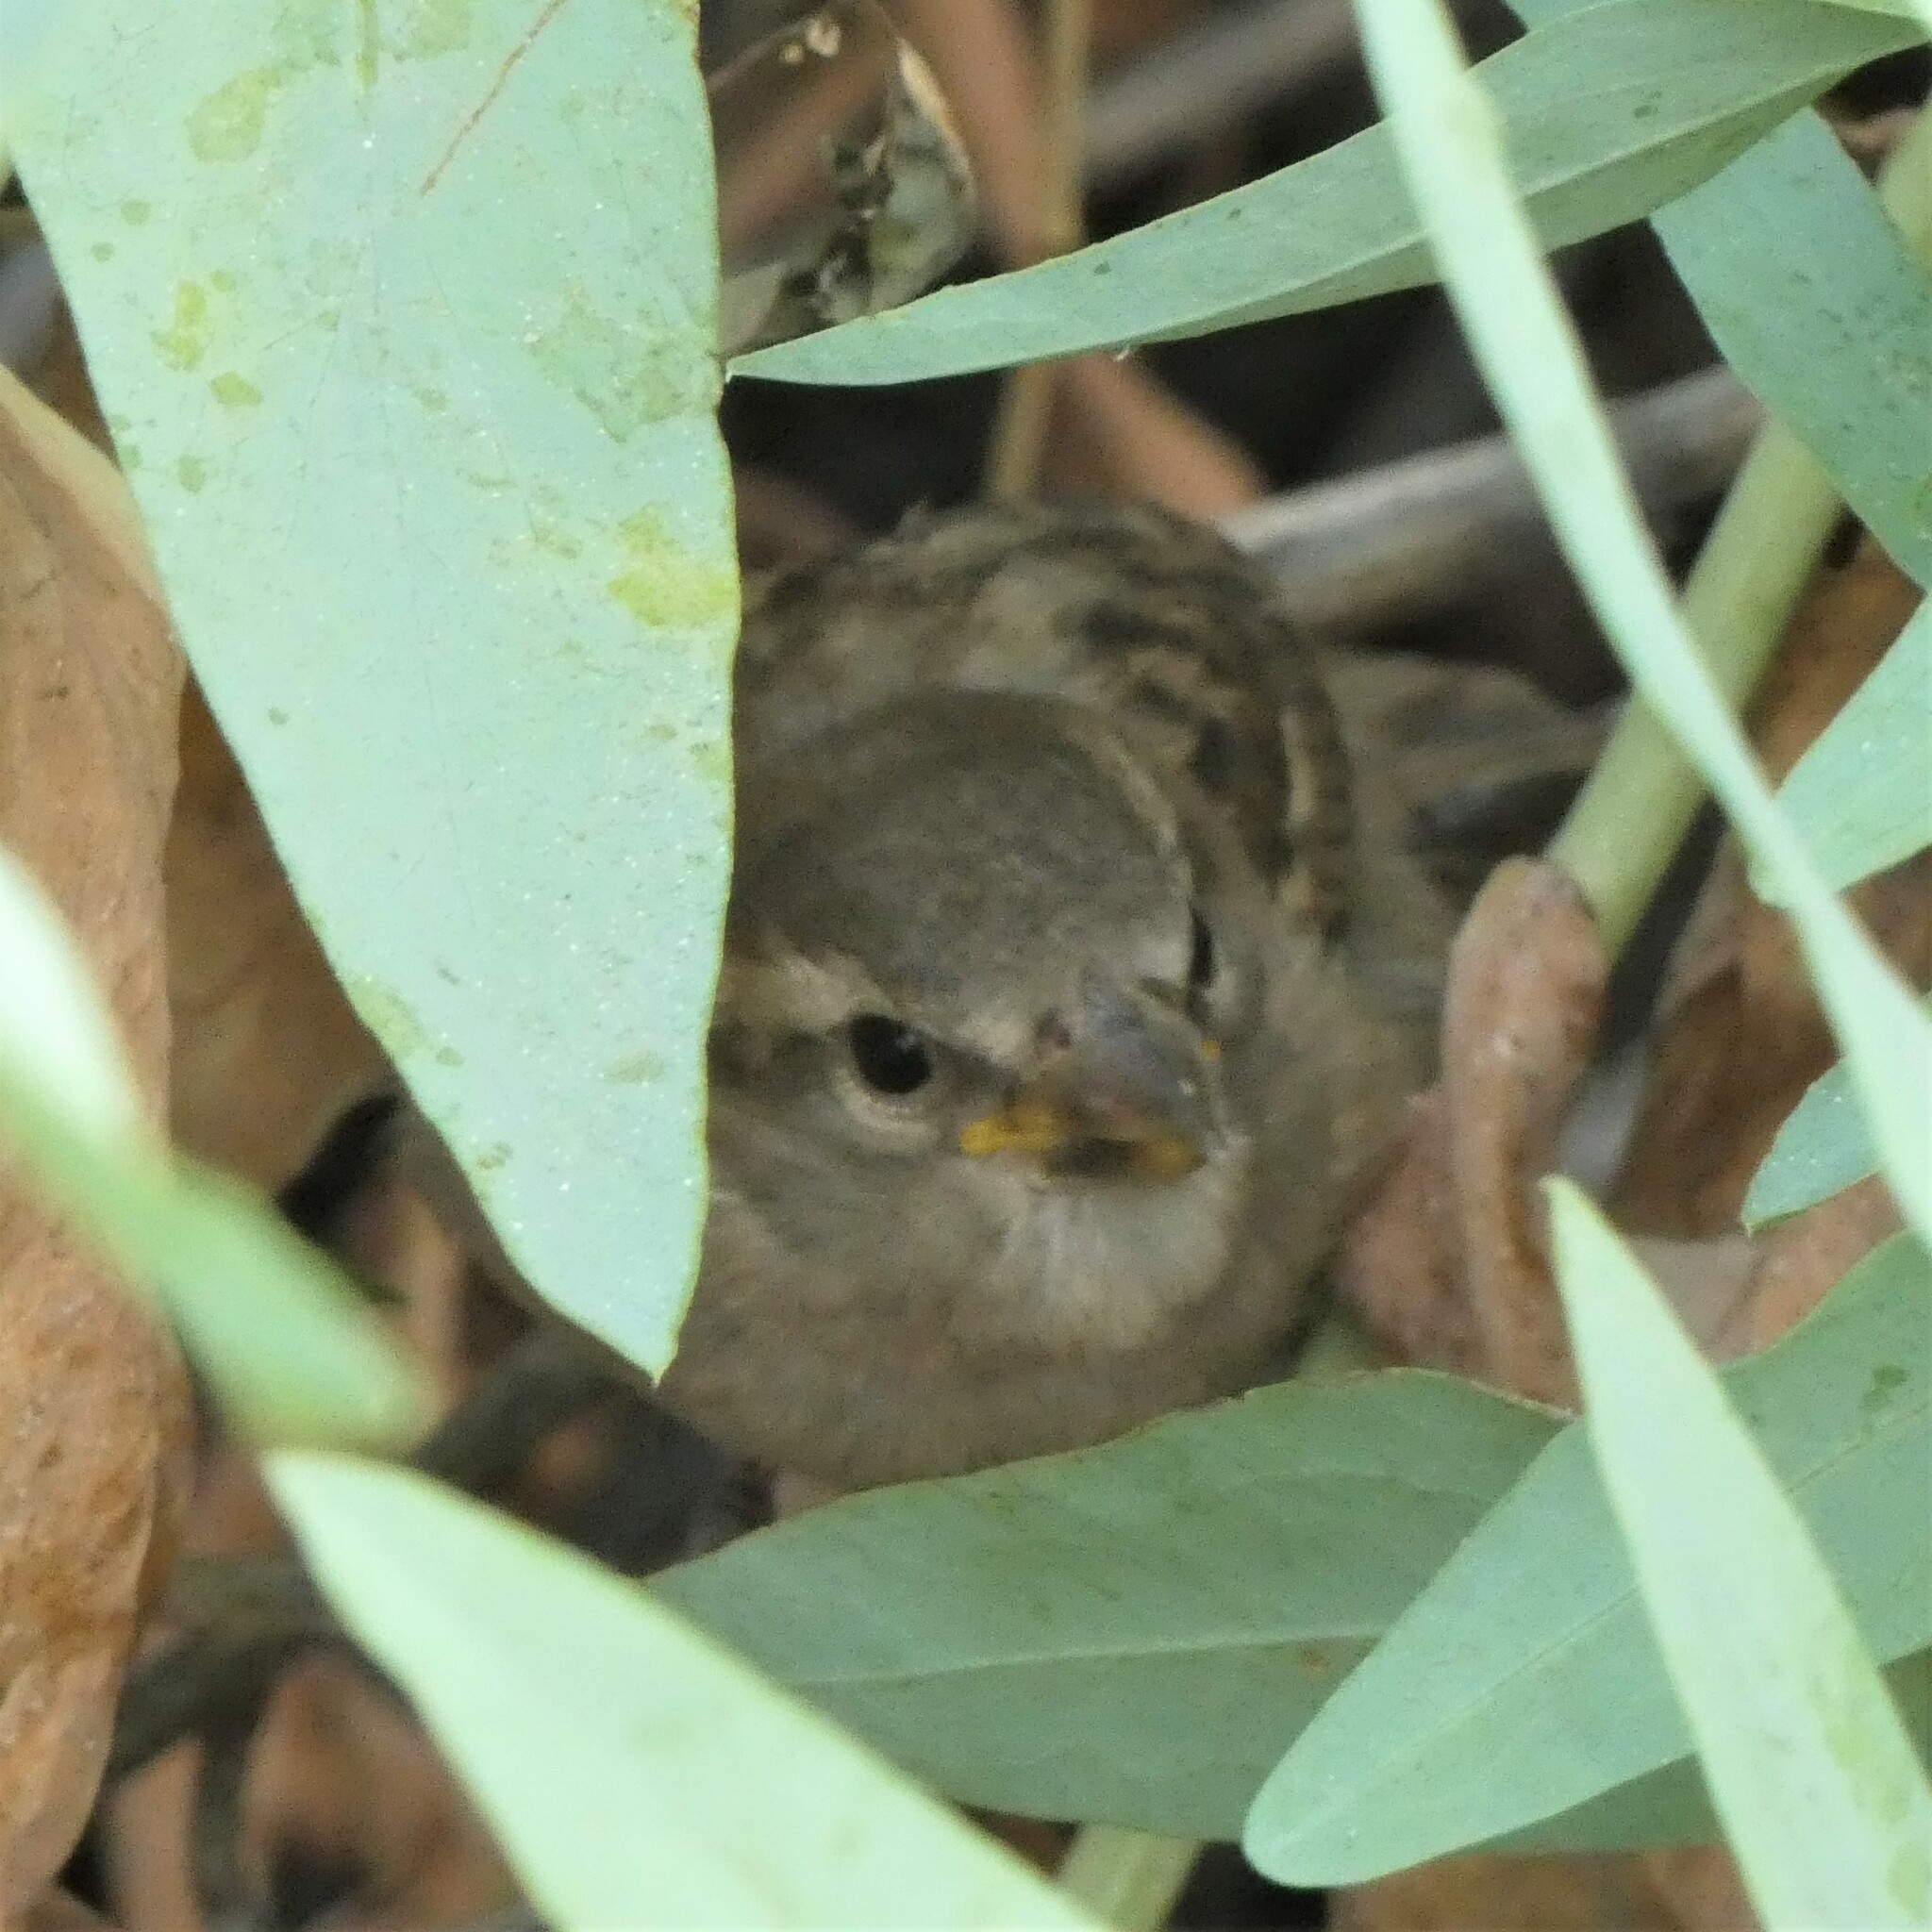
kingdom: Animalia
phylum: Chordata
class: Aves
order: Passeriformes
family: Passeridae
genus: Passer
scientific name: Passer domesticus
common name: House sparrow
